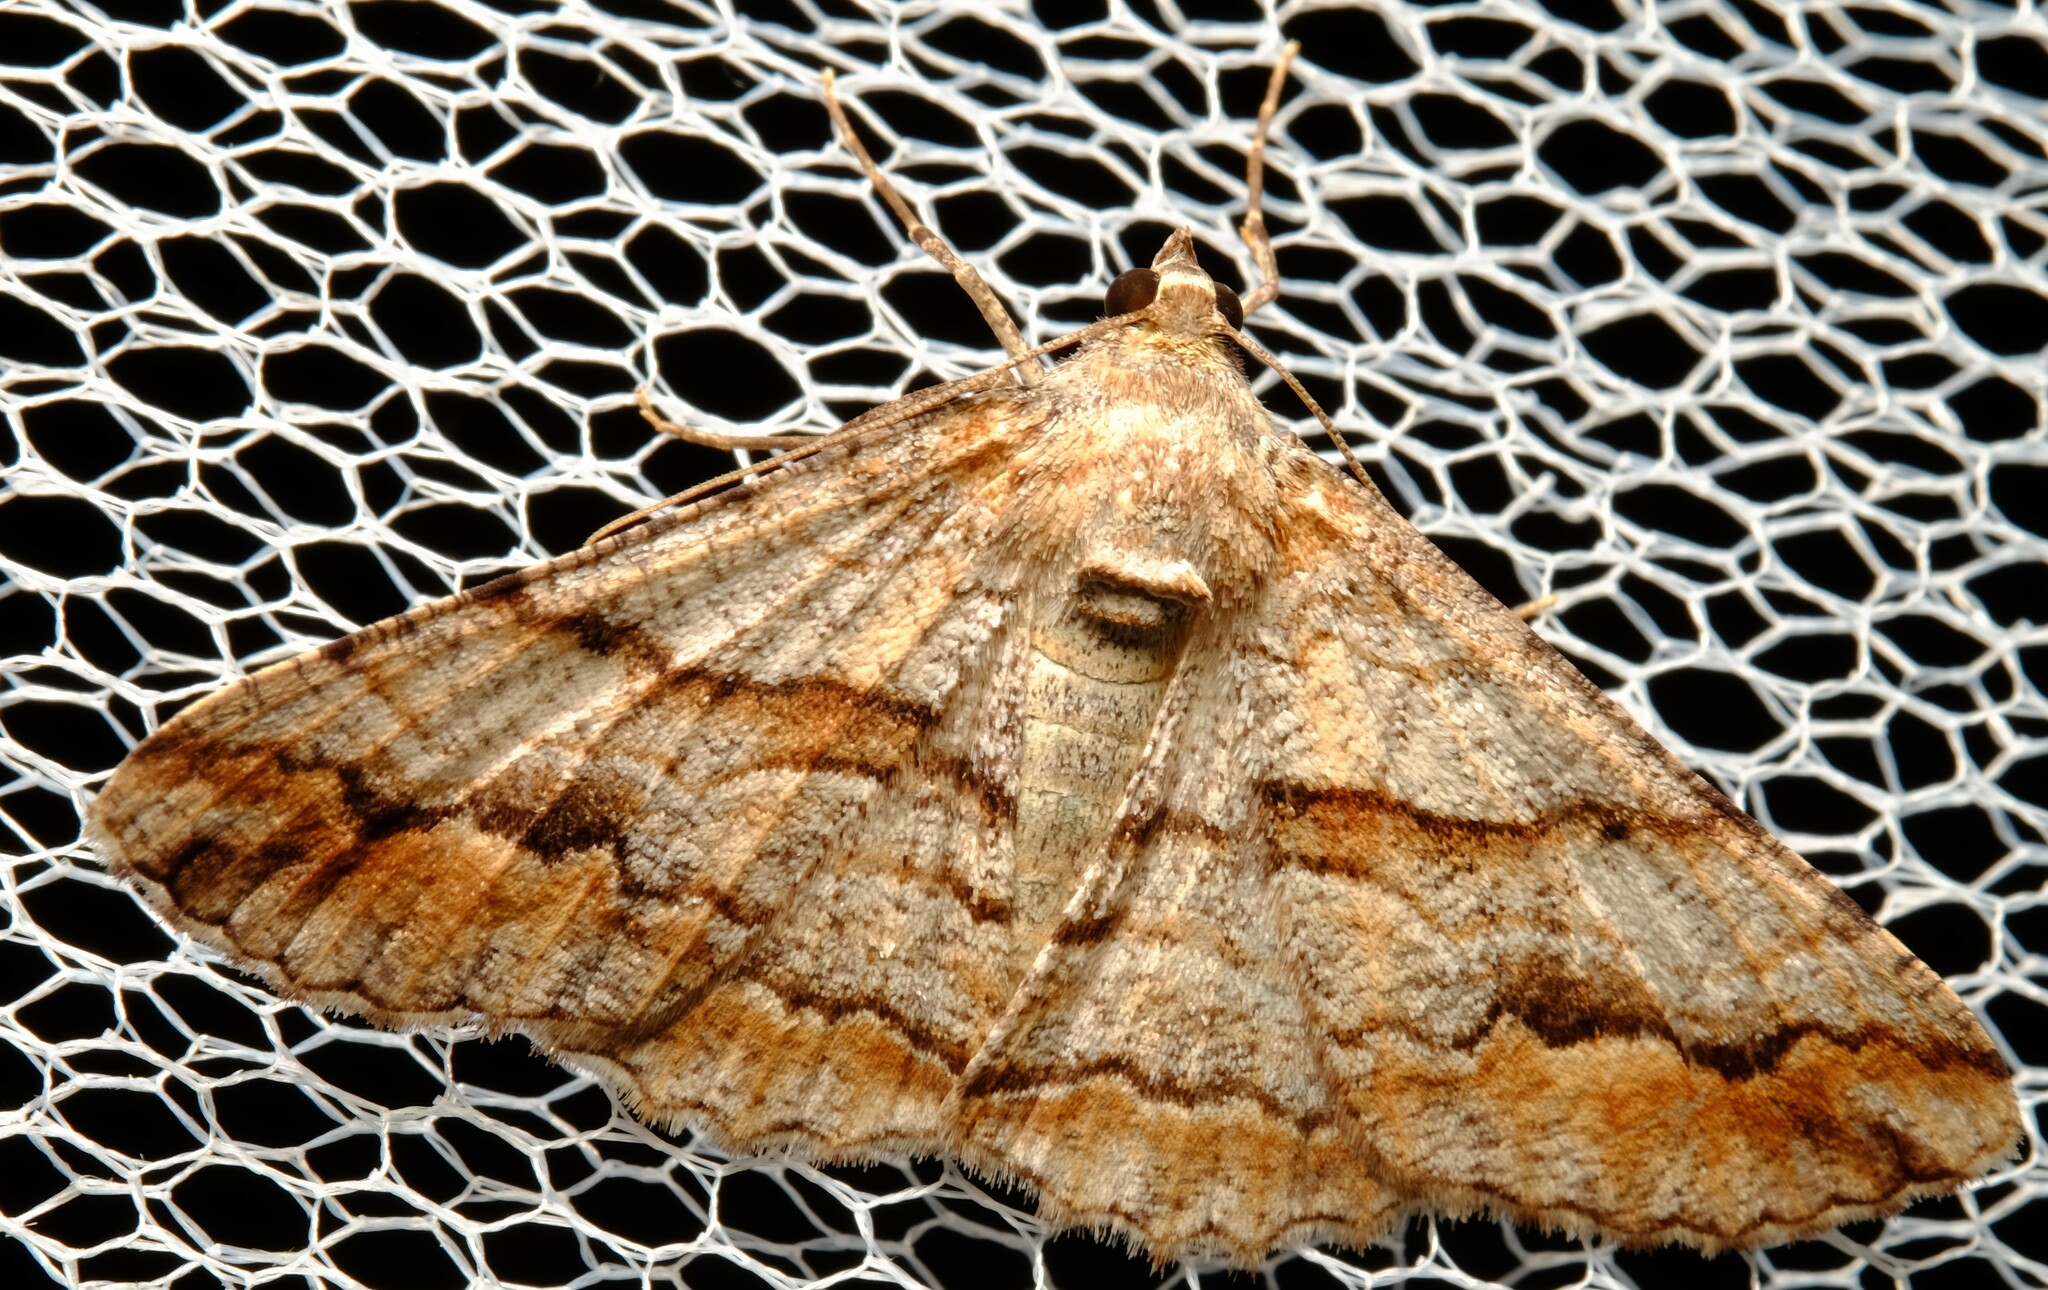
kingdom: Animalia
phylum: Arthropoda
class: Insecta
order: Lepidoptera
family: Geometridae
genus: Gastrinodes
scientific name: Gastrinodes bitaeniaria
